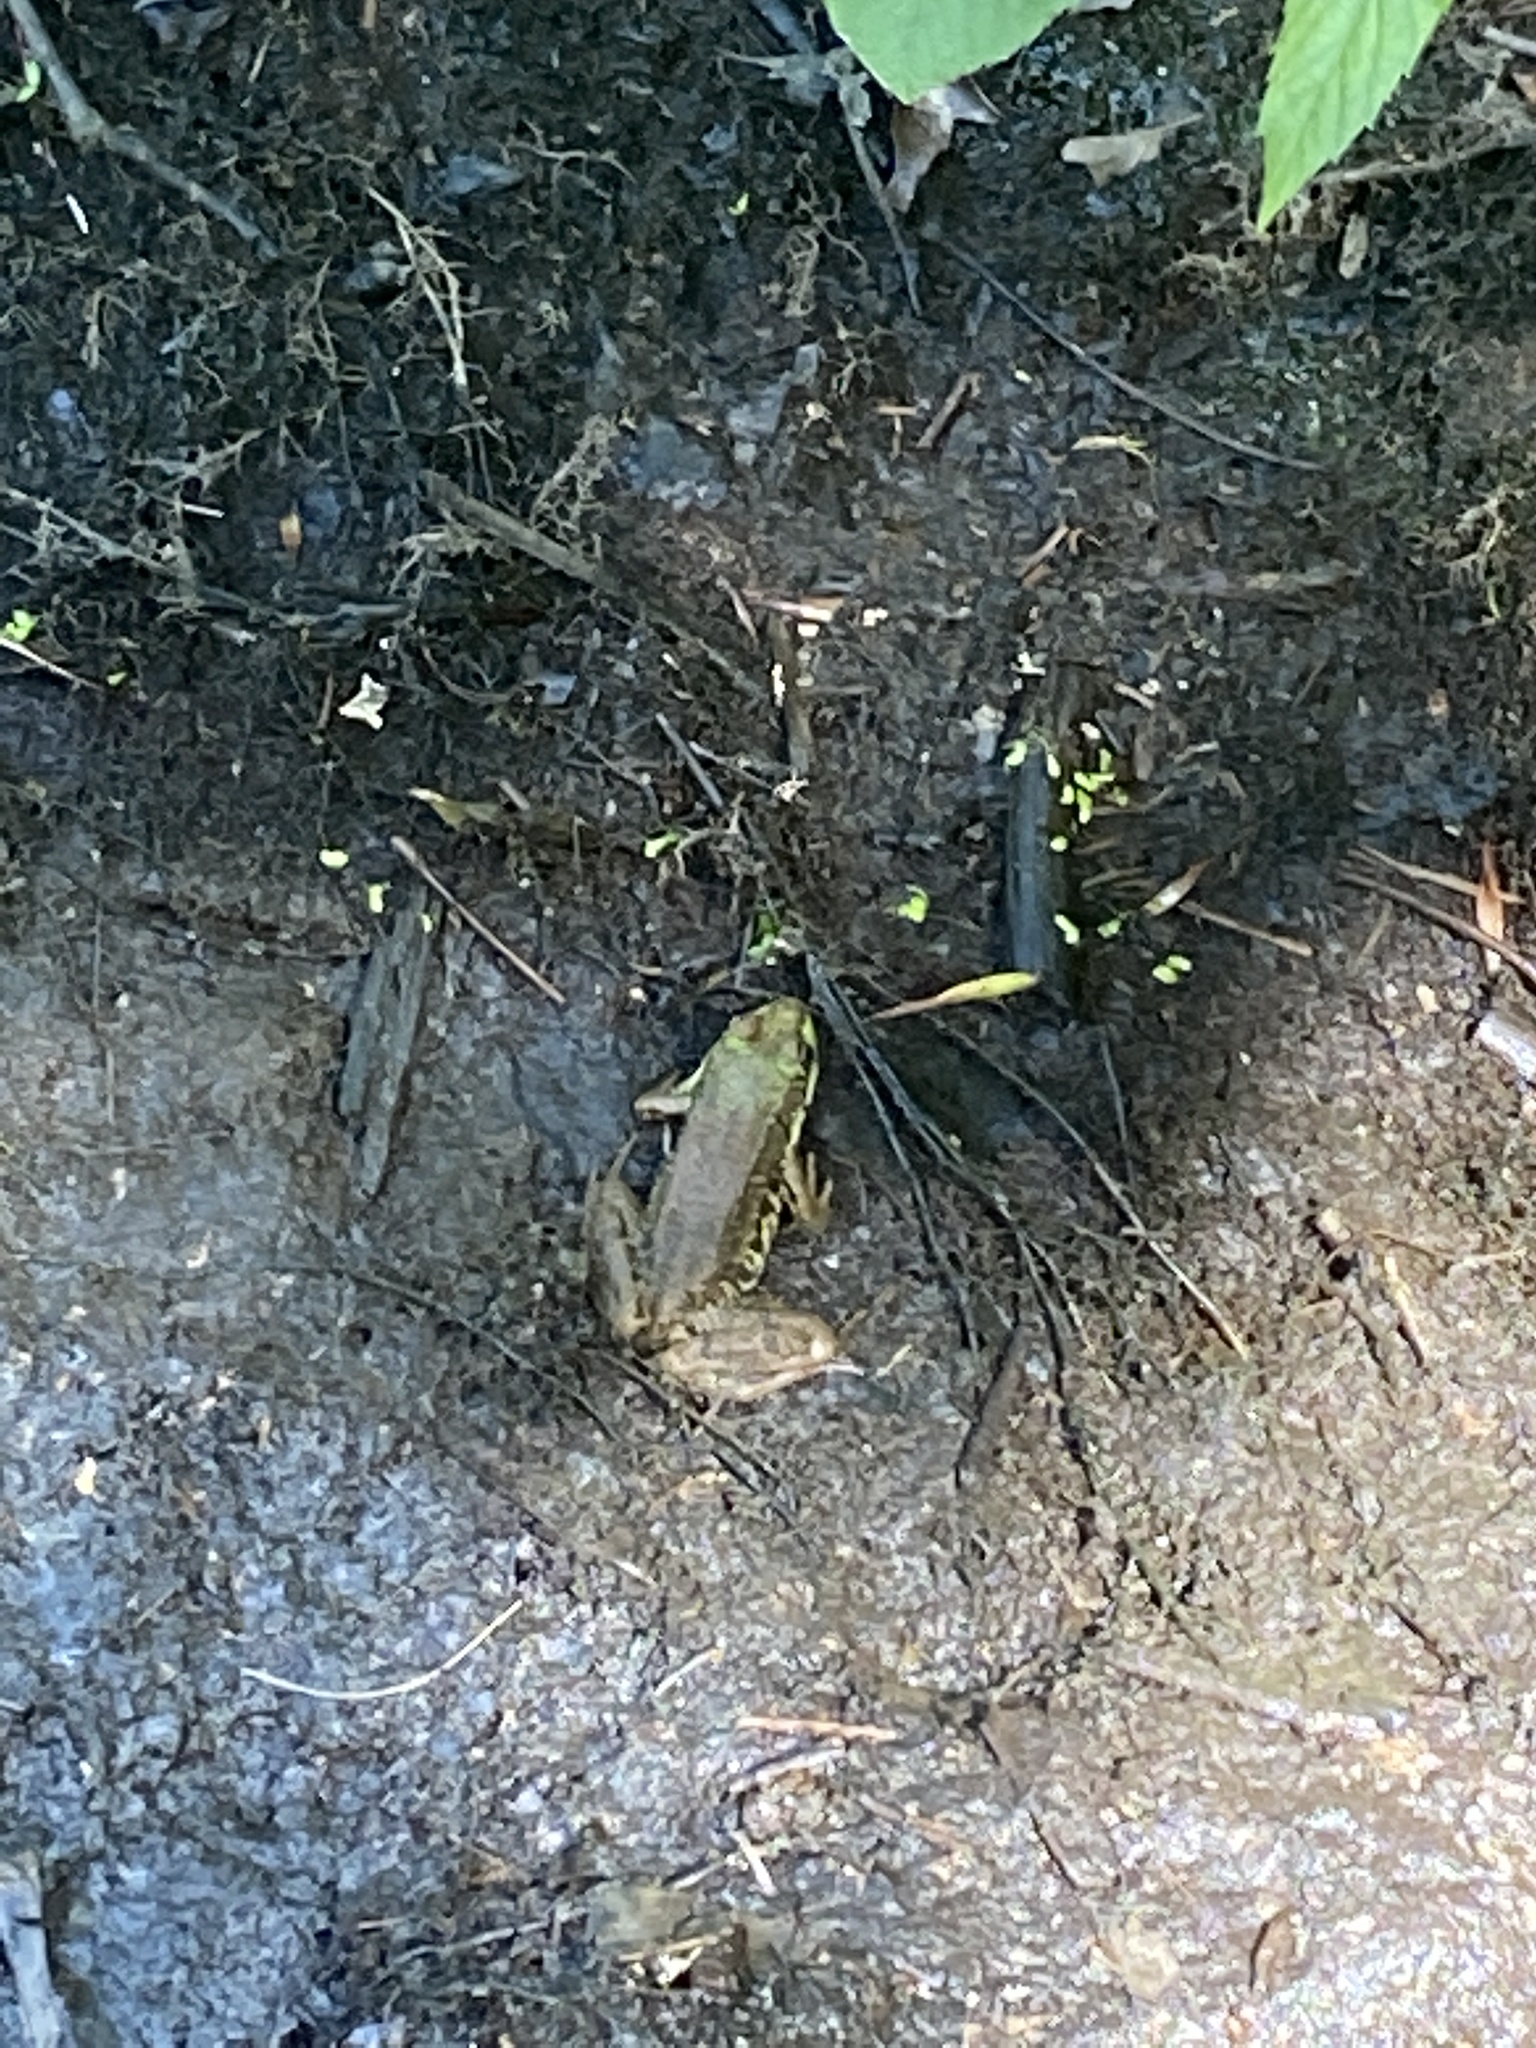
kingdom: Animalia
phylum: Chordata
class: Amphibia
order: Anura
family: Ranidae
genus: Lithobates
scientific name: Lithobates clamitans
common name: Green frog
